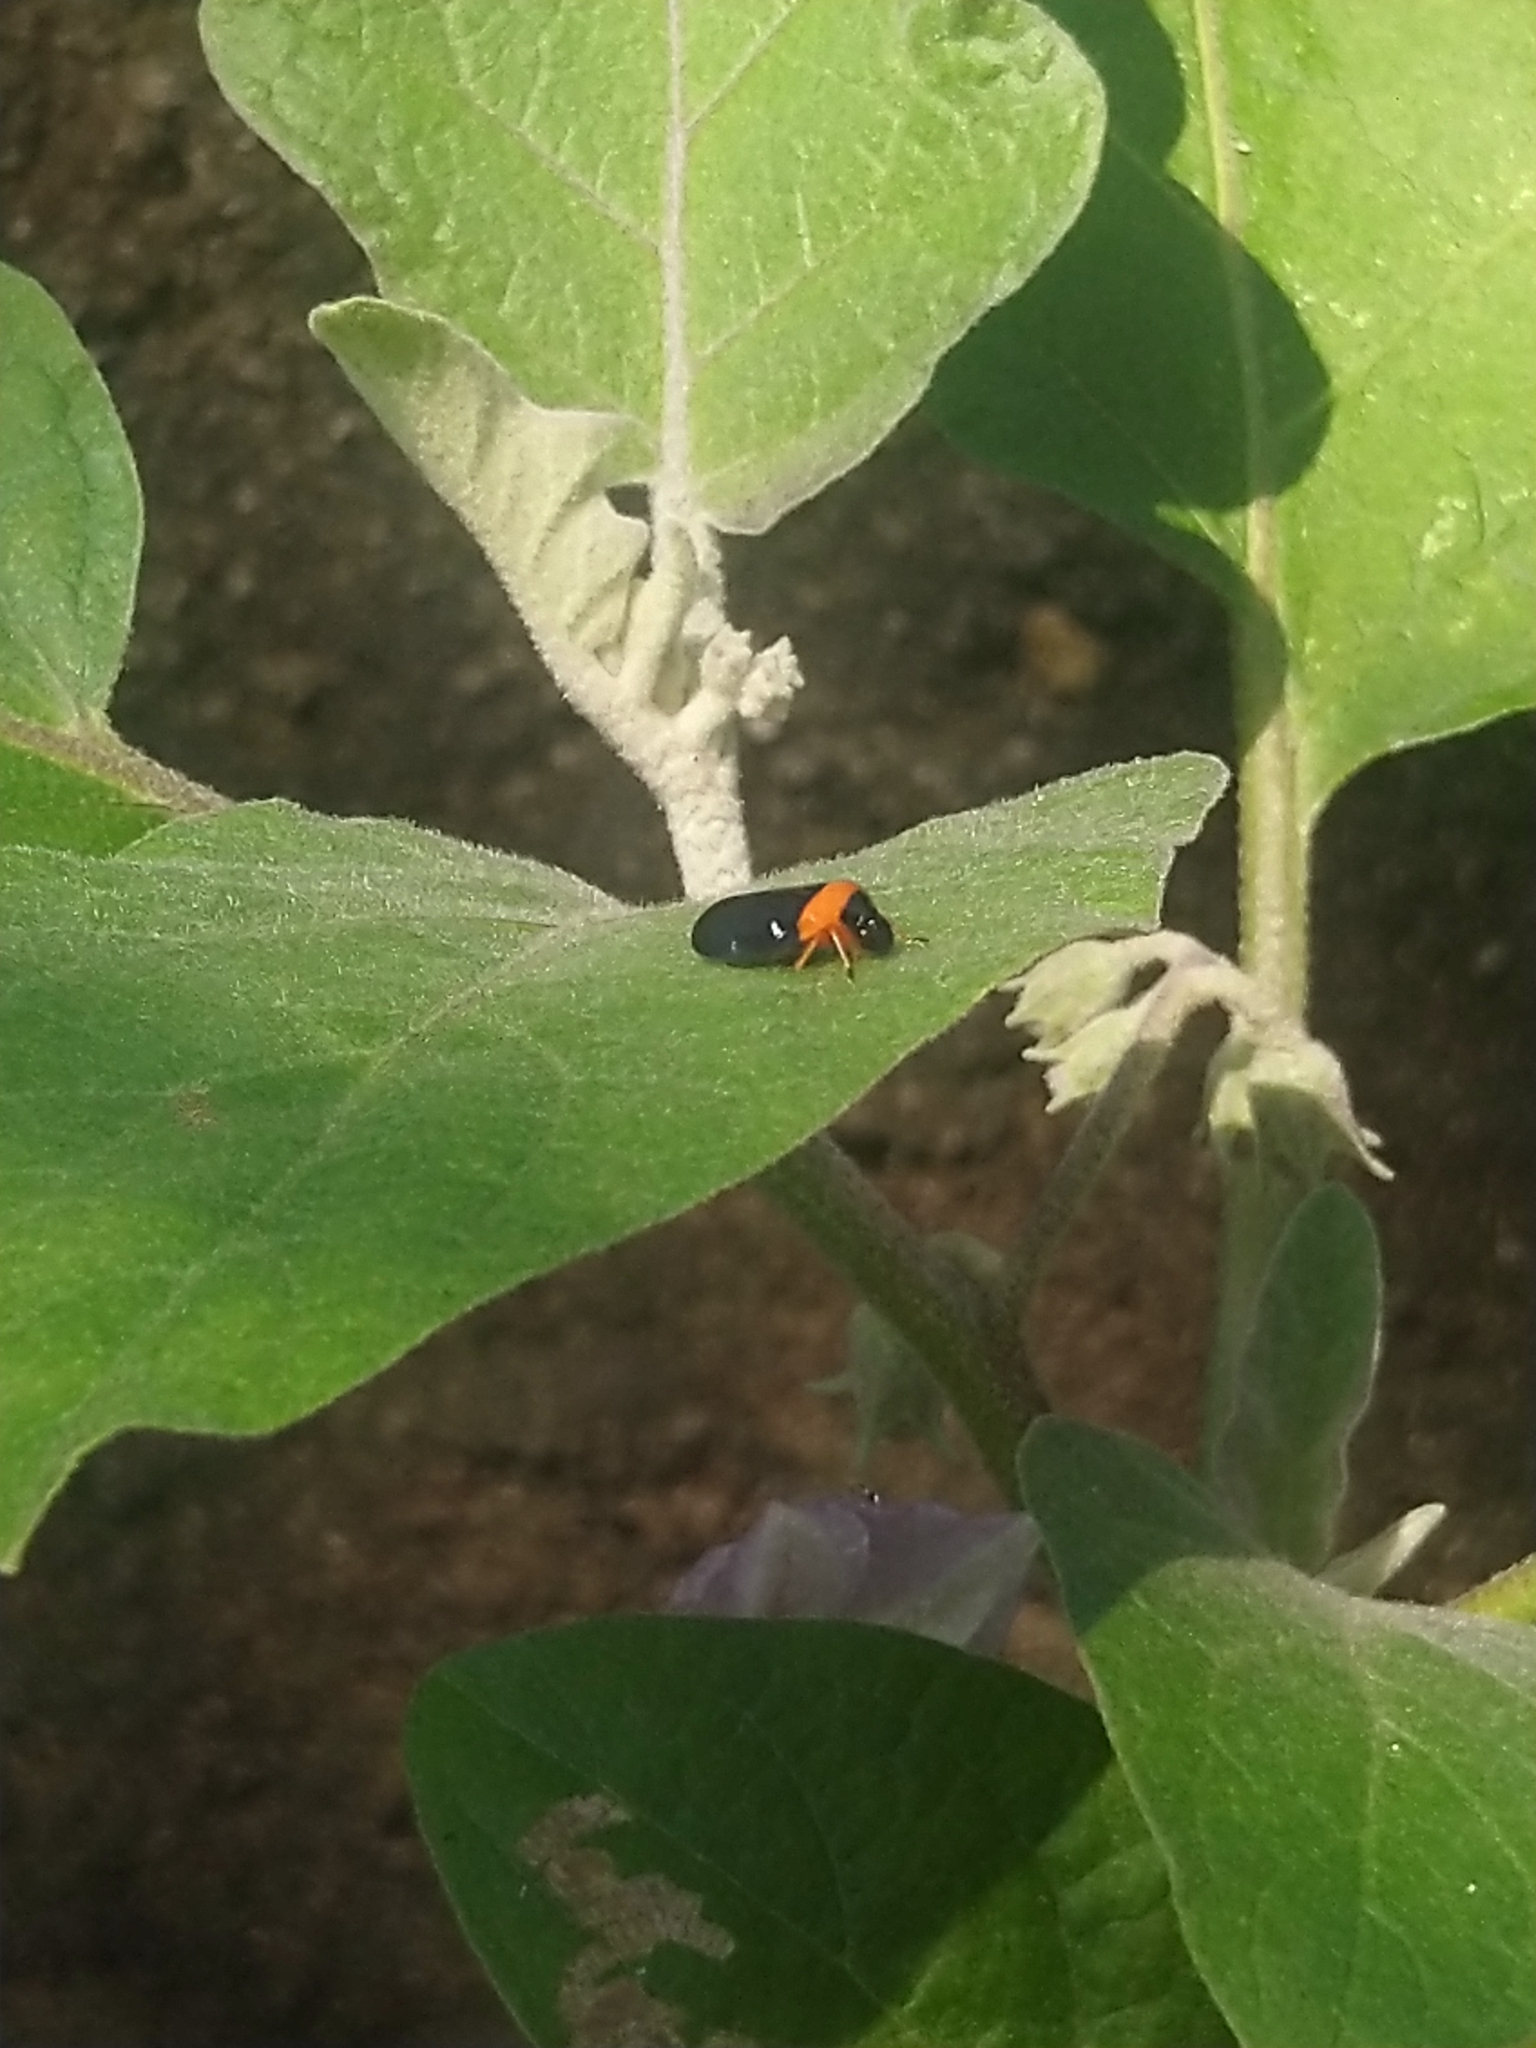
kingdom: Animalia
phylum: Arthropoda
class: Insecta
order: Hemiptera
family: Cercopidae
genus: Phymatostetha
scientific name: Phymatostetha deschampsi
